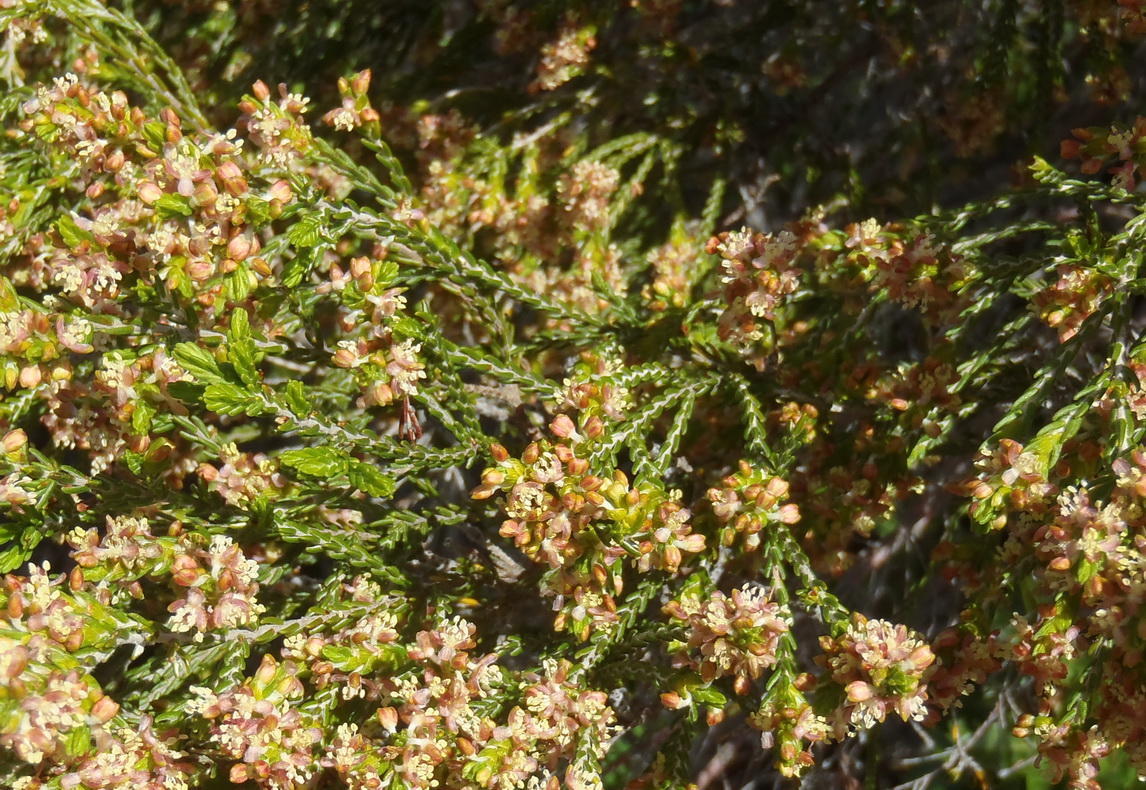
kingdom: Plantae
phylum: Tracheophyta
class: Magnoliopsida
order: Malvales
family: Thymelaeaceae
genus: Passerina
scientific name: Passerina corymbosa
